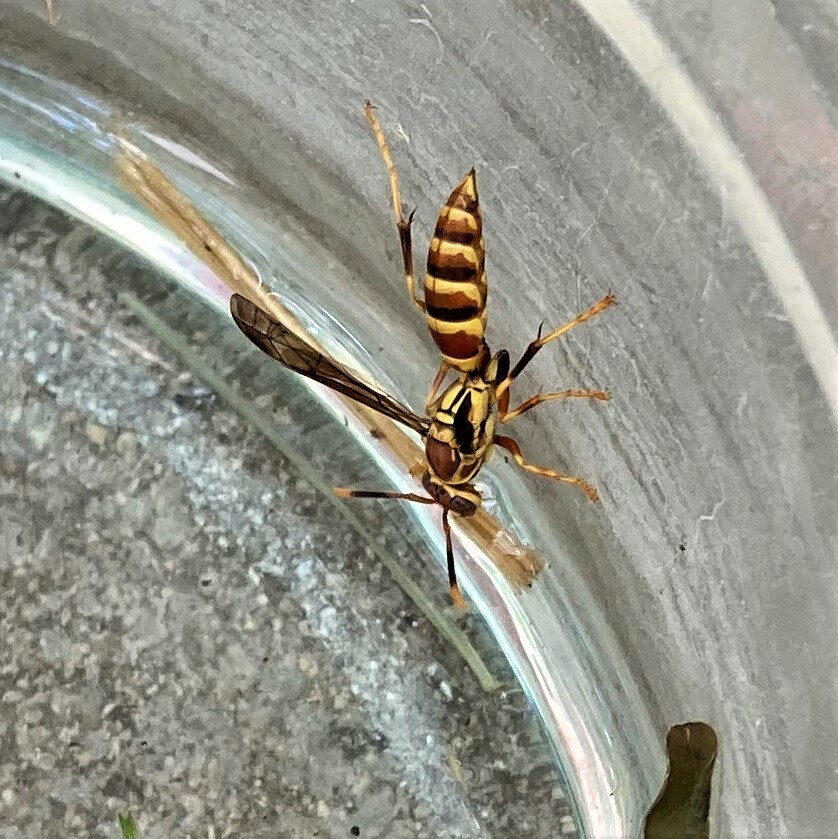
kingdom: Animalia
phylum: Arthropoda
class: Insecta
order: Hymenoptera
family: Eumenidae
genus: Polistes
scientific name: Polistes exclamans
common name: Paper wasp
